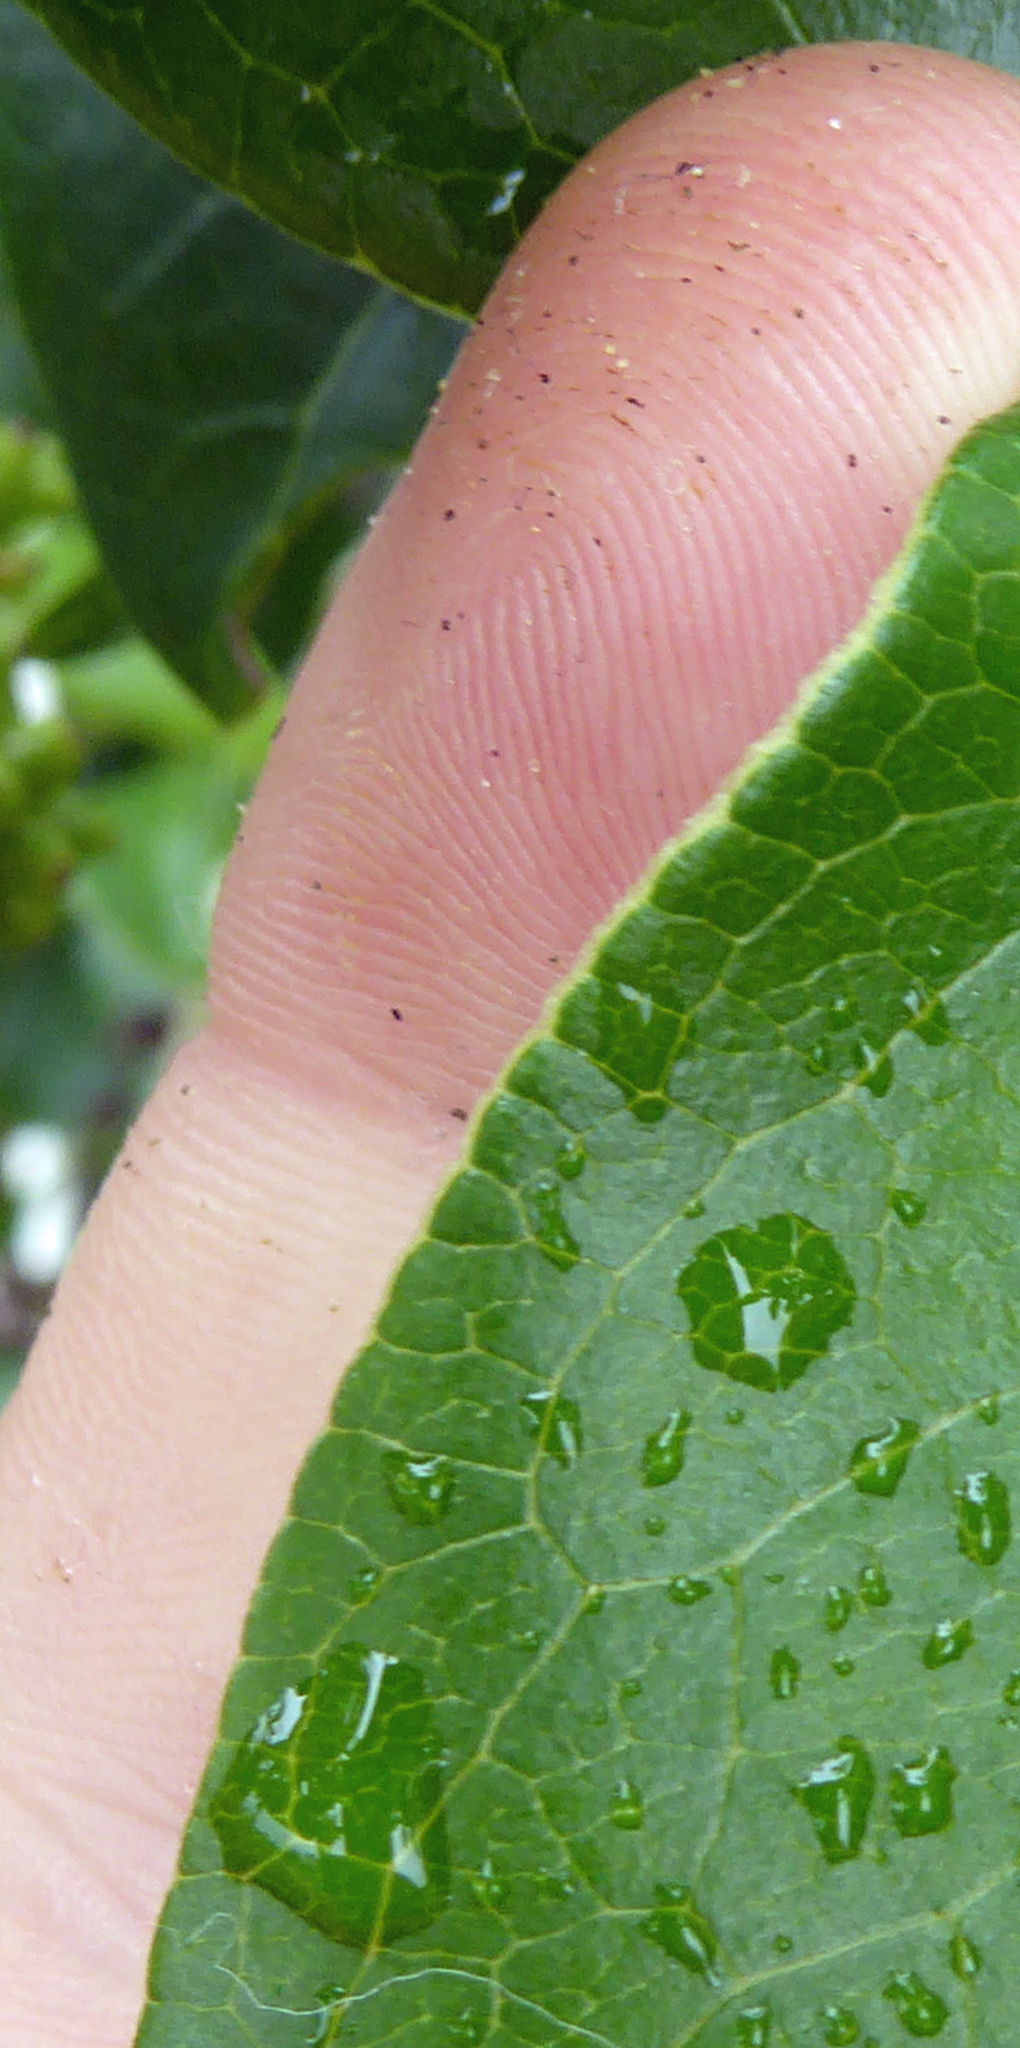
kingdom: Plantae
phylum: Tracheophyta
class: Magnoliopsida
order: Gentianales
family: Rubiaceae
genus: Coprosma
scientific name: Coprosma robusta
